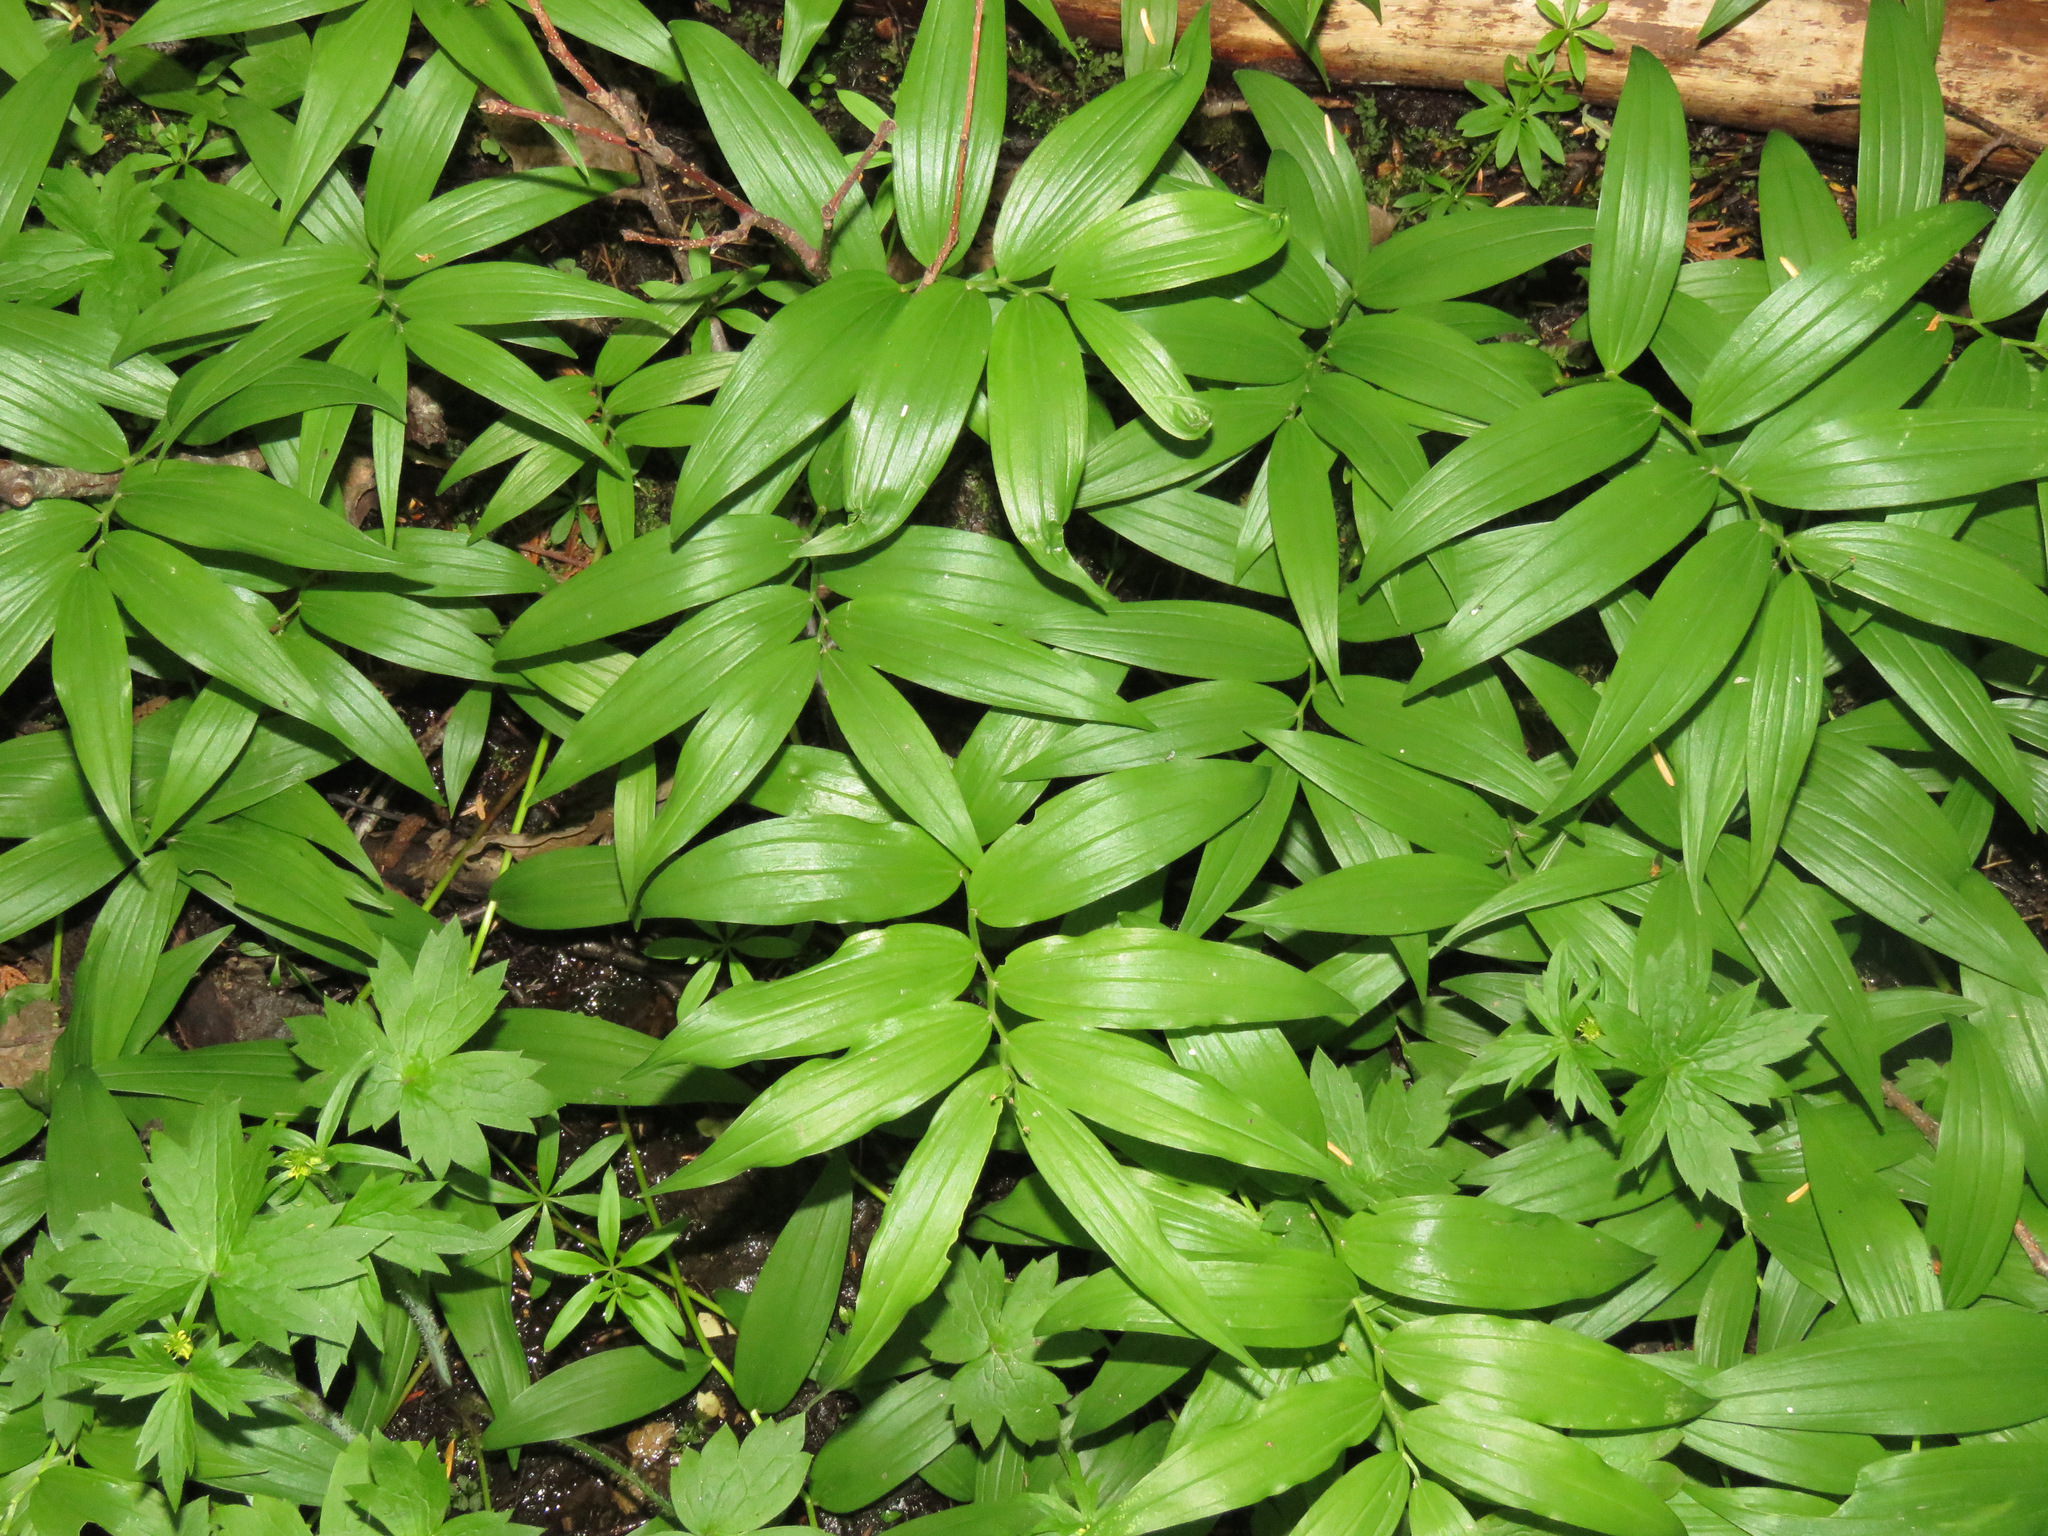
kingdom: Plantae
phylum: Tracheophyta
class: Liliopsida
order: Asparagales
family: Asparagaceae
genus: Maianthemum
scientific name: Maianthemum stellatum
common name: Little false solomon's seal
